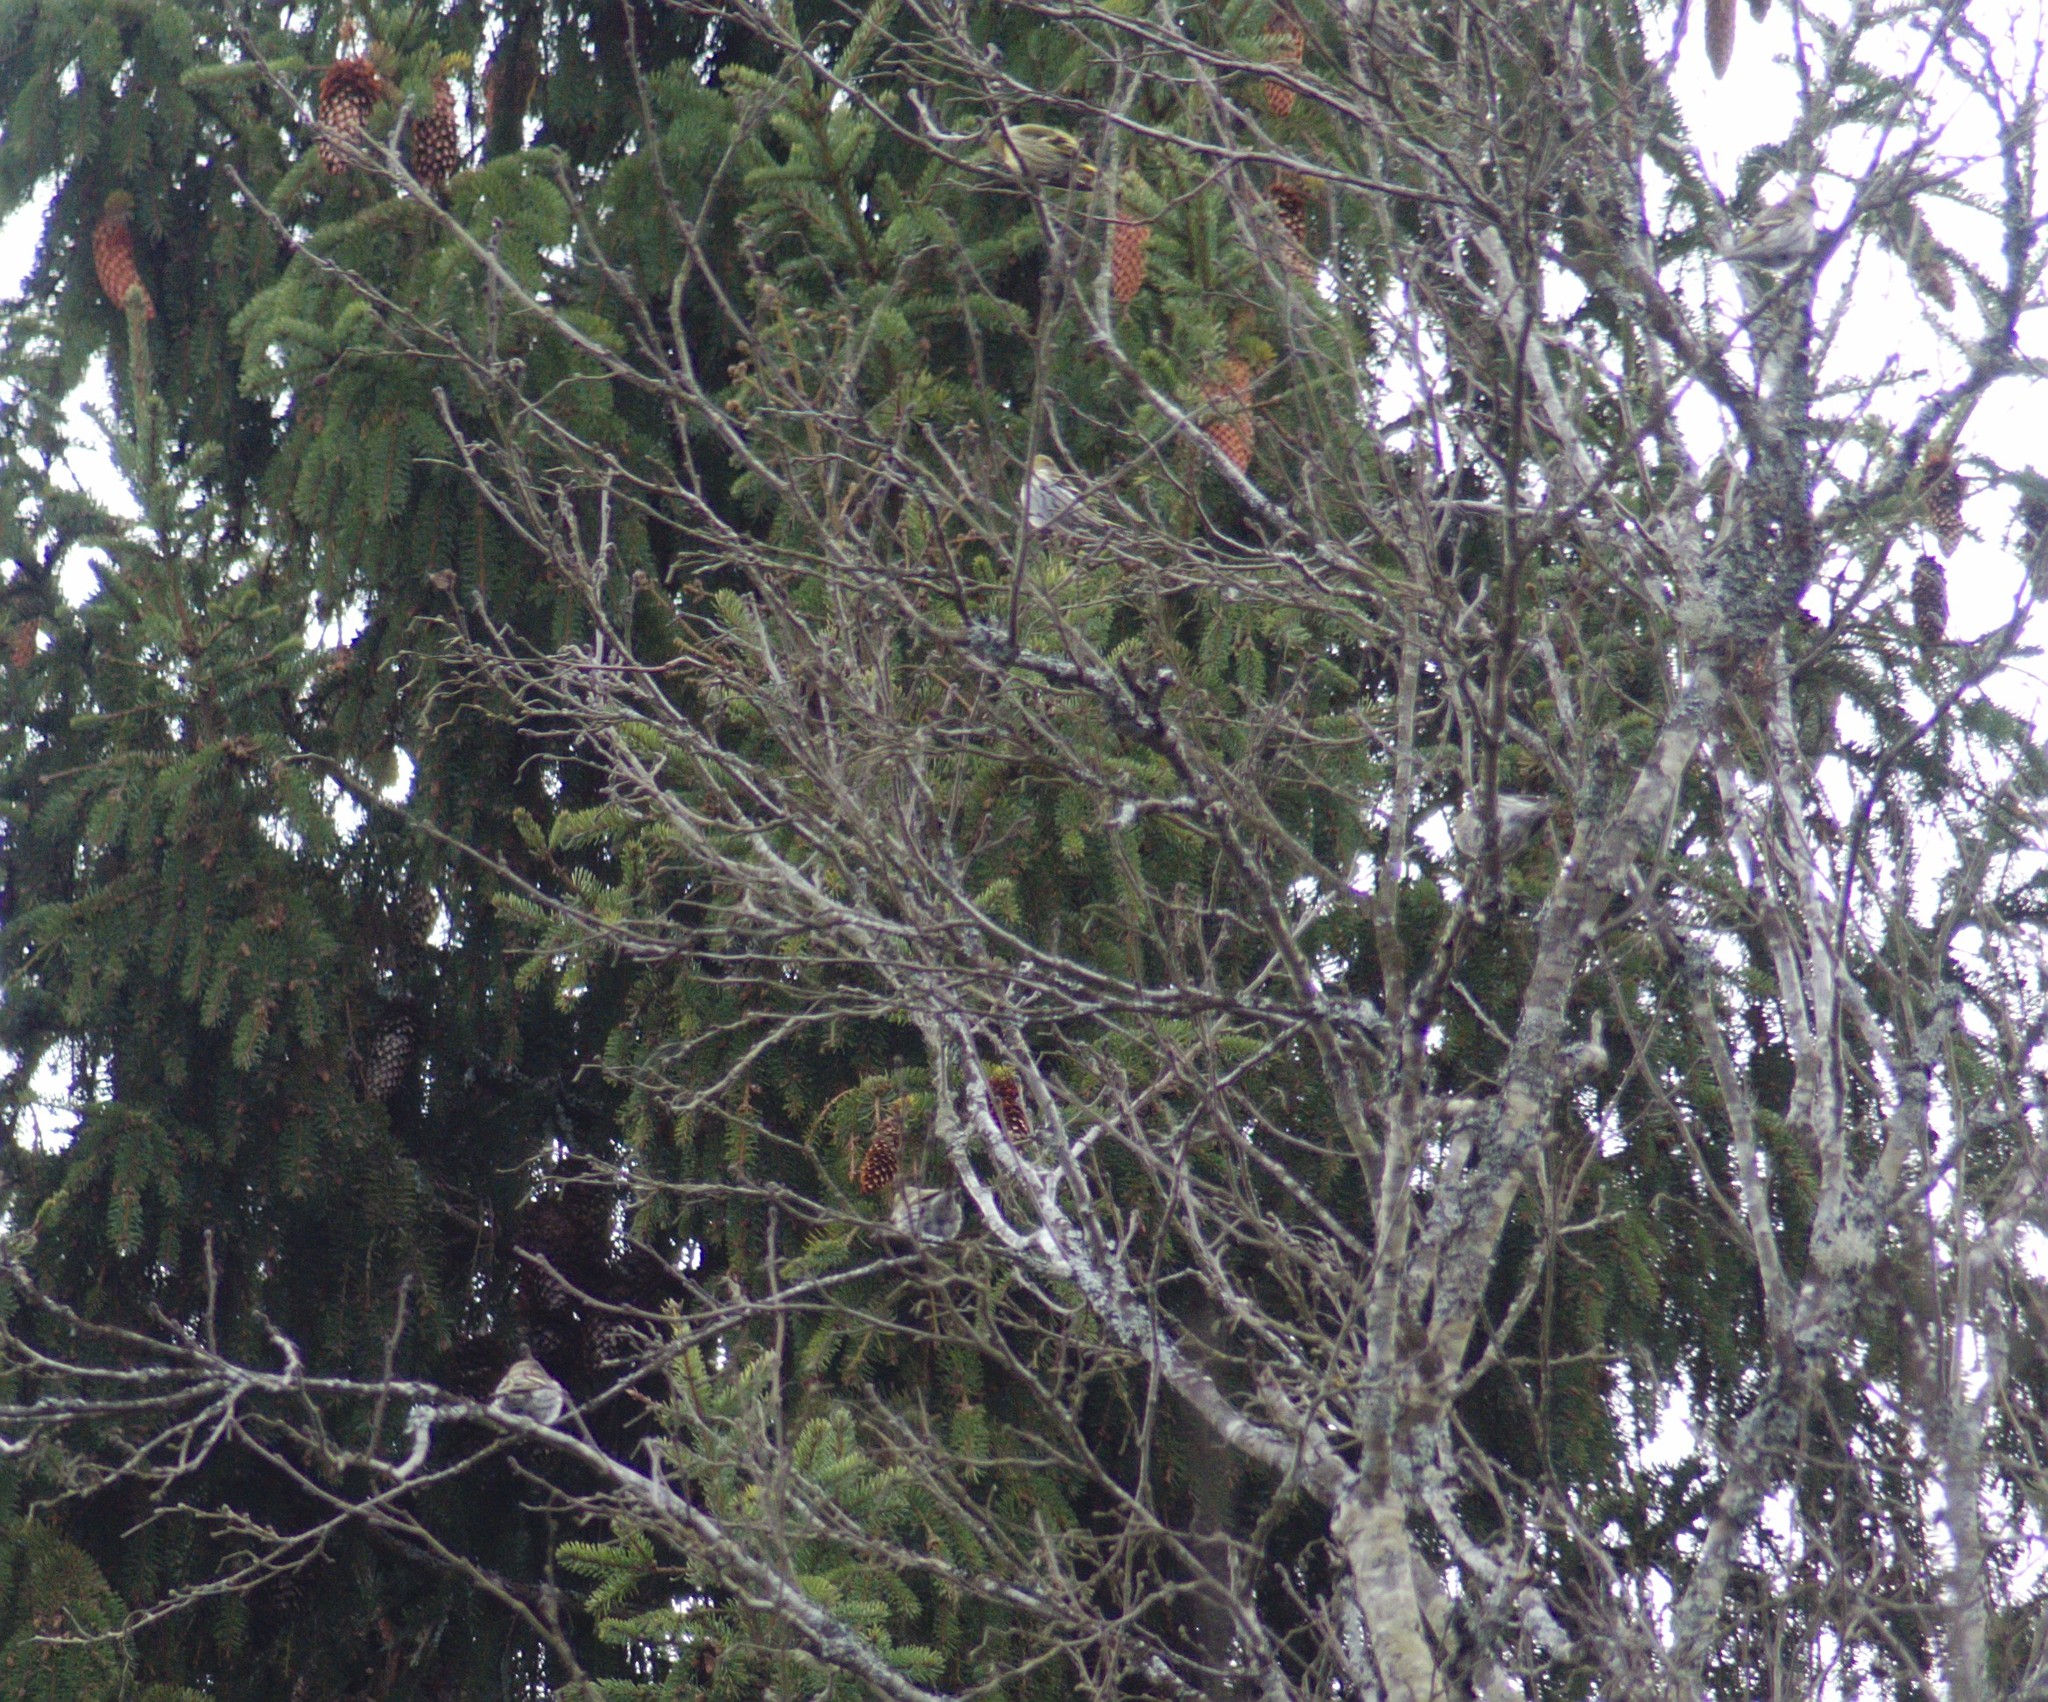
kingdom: Animalia
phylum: Chordata
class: Aves
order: Passeriformes
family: Fringillidae
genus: Spinus
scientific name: Spinus spinus
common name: Eurasian siskin
